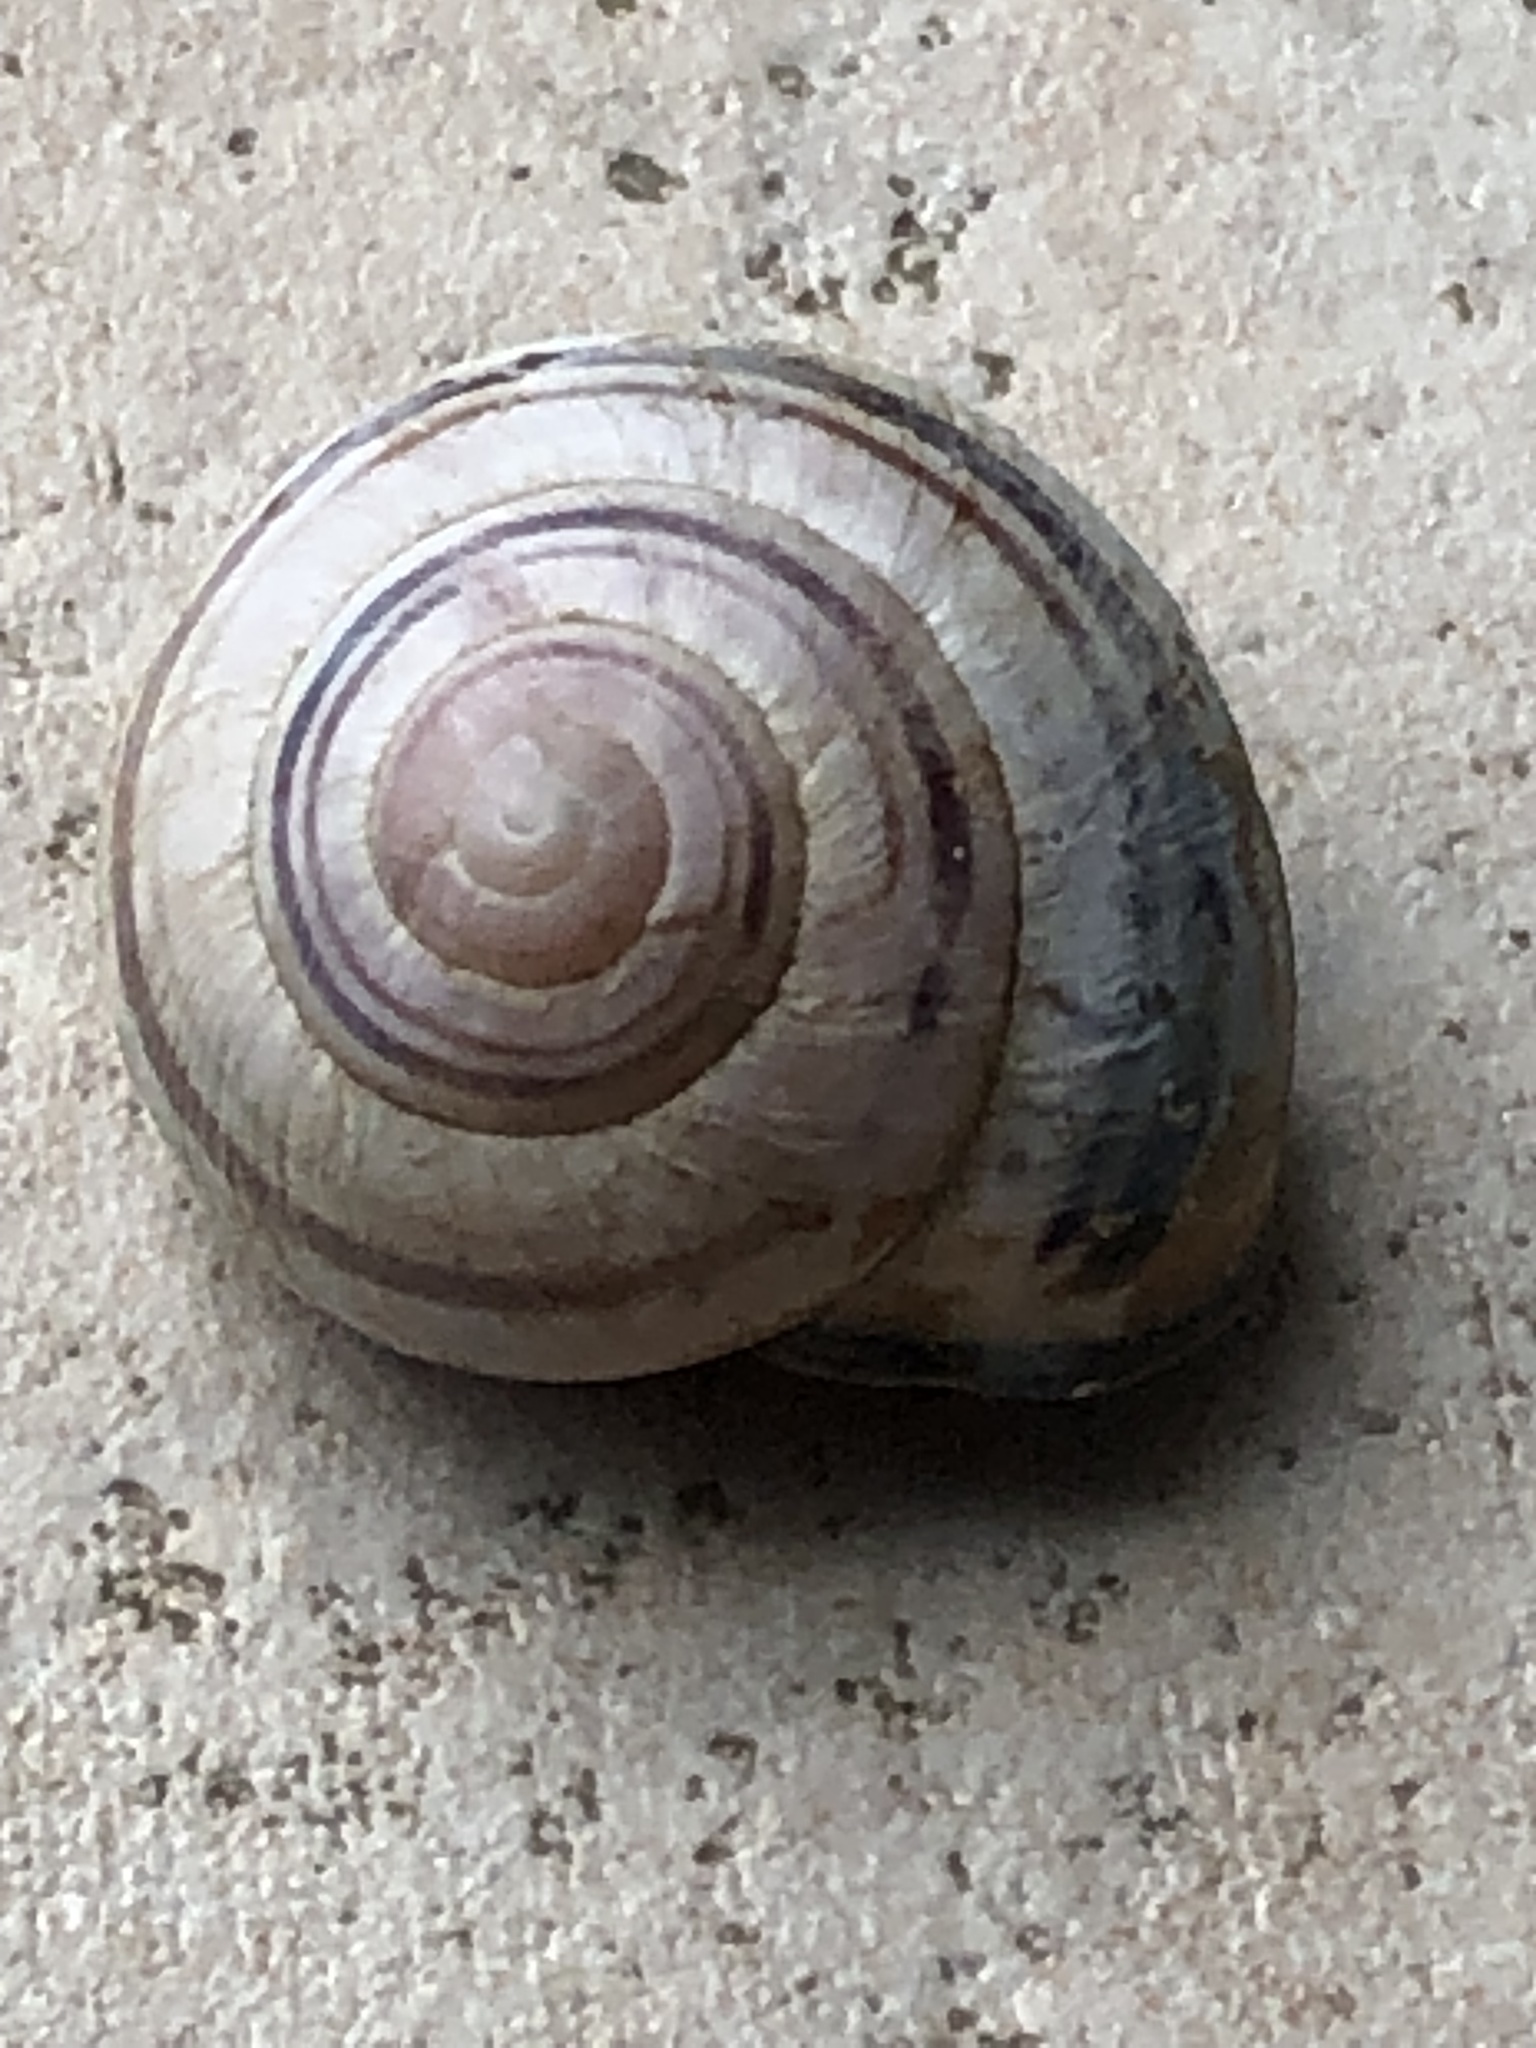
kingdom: Animalia
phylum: Mollusca
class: Gastropoda
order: Stylommatophora
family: Helicidae
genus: Cepaea
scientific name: Cepaea nemoralis
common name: Grovesnail
